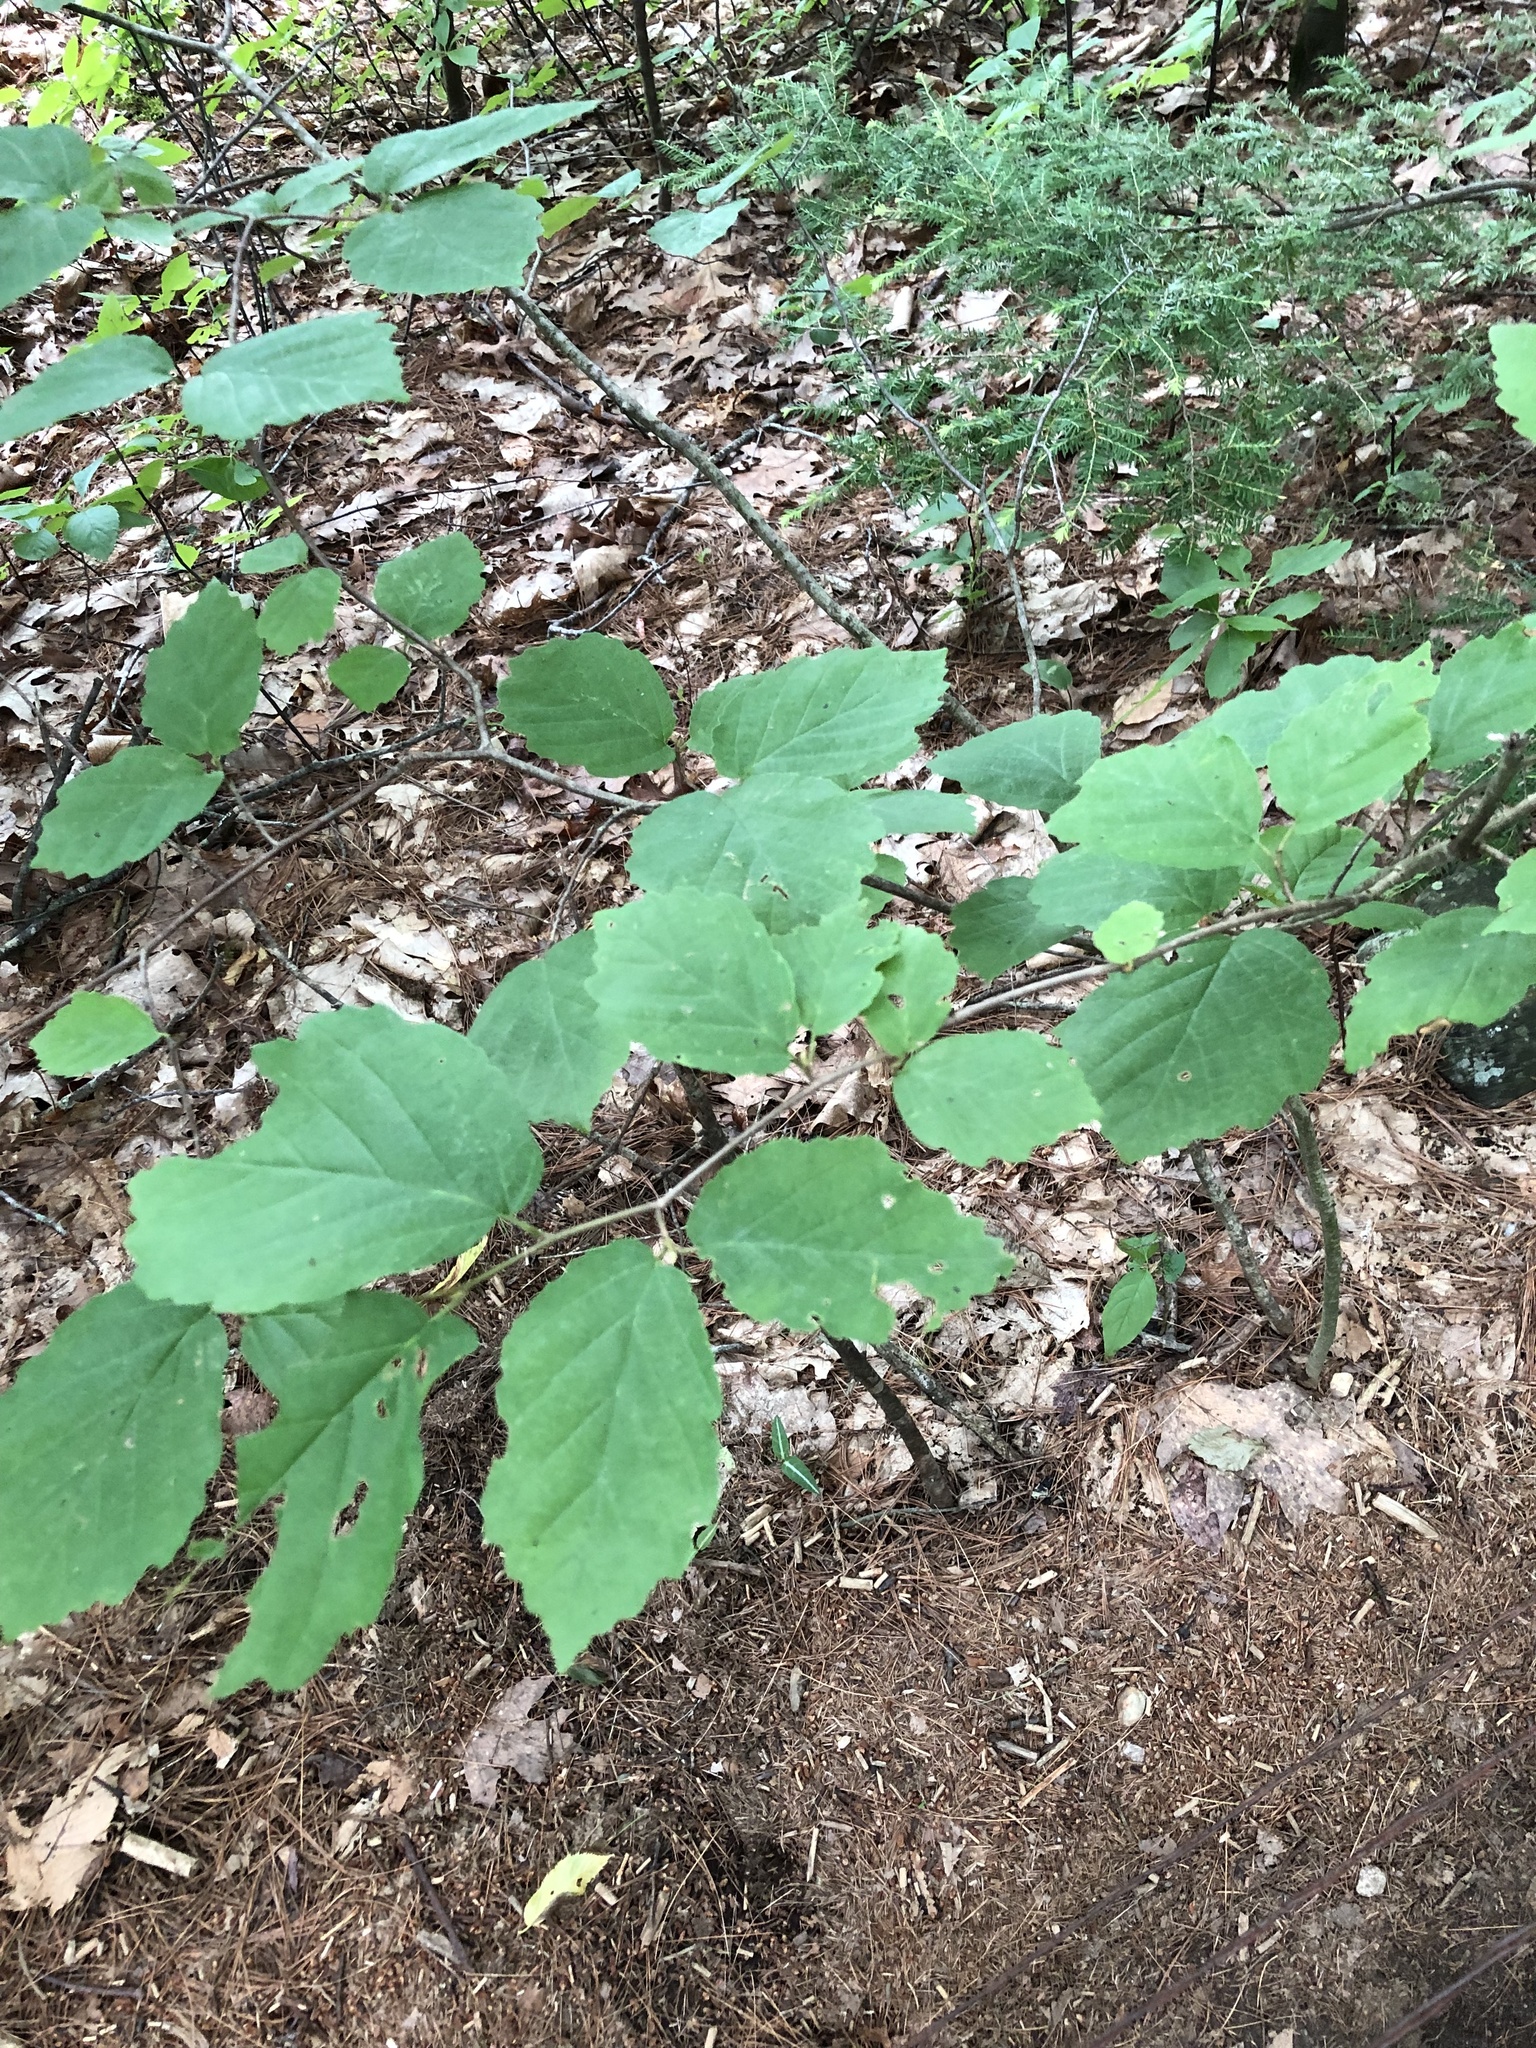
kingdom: Plantae
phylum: Tracheophyta
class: Magnoliopsida
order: Saxifragales
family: Hamamelidaceae
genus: Hamamelis
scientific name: Hamamelis virginiana
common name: Witch-hazel
